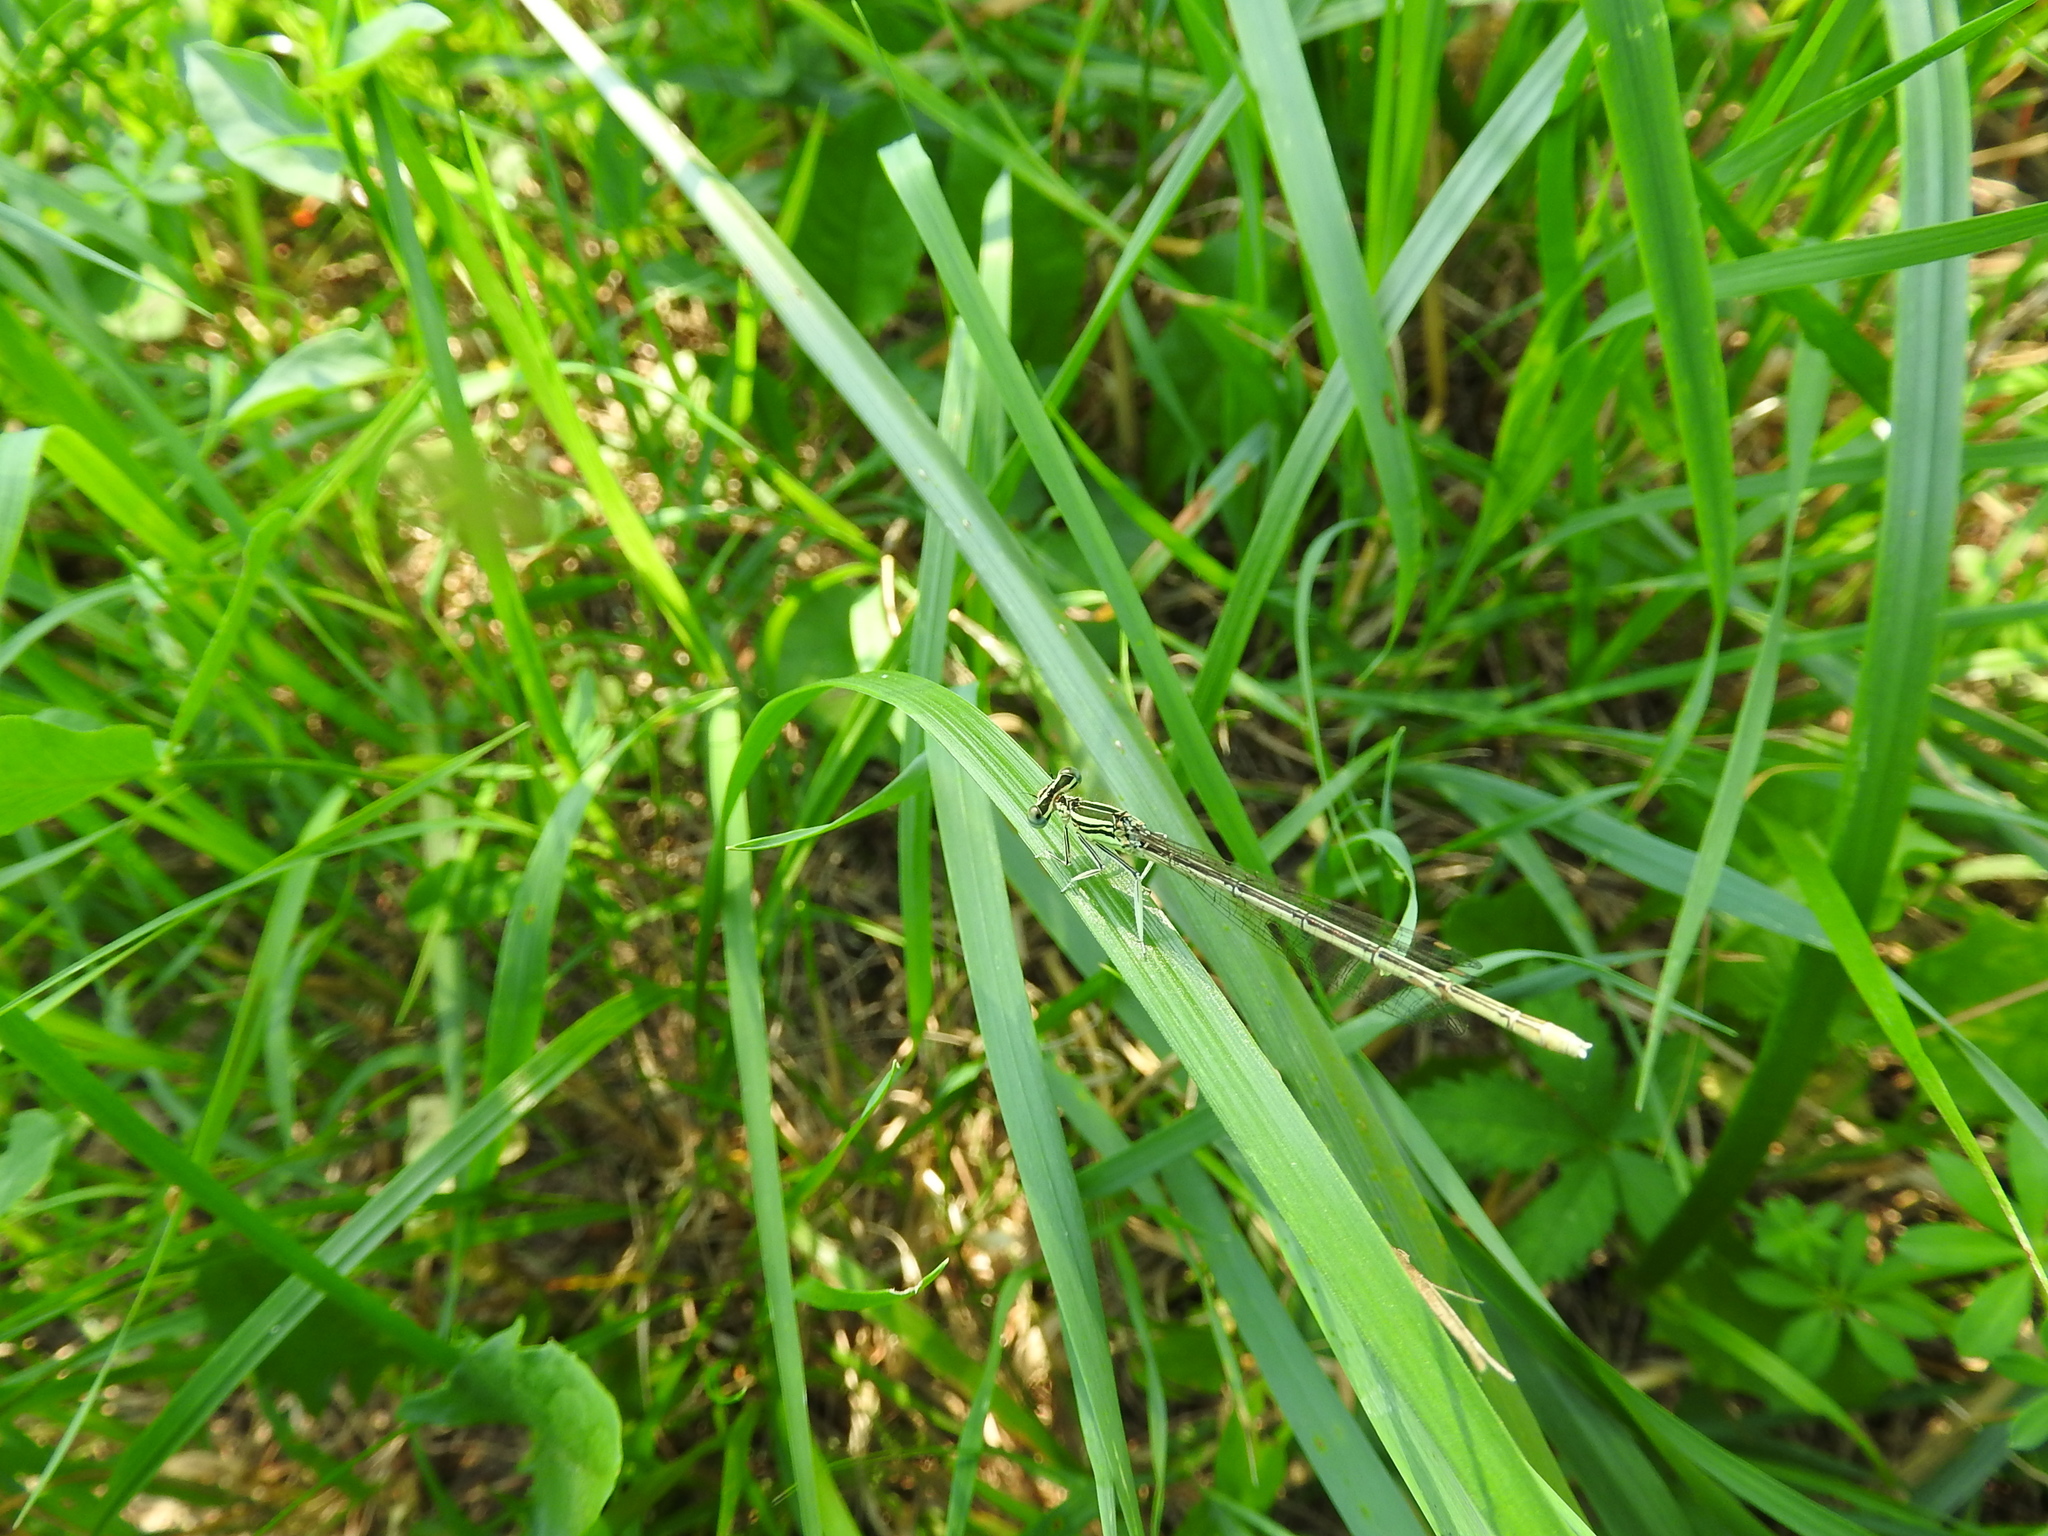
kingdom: Animalia
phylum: Arthropoda
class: Insecta
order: Odonata
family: Platycnemididae
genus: Platycnemis
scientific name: Platycnemis pennipes
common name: White-legged damselfly
